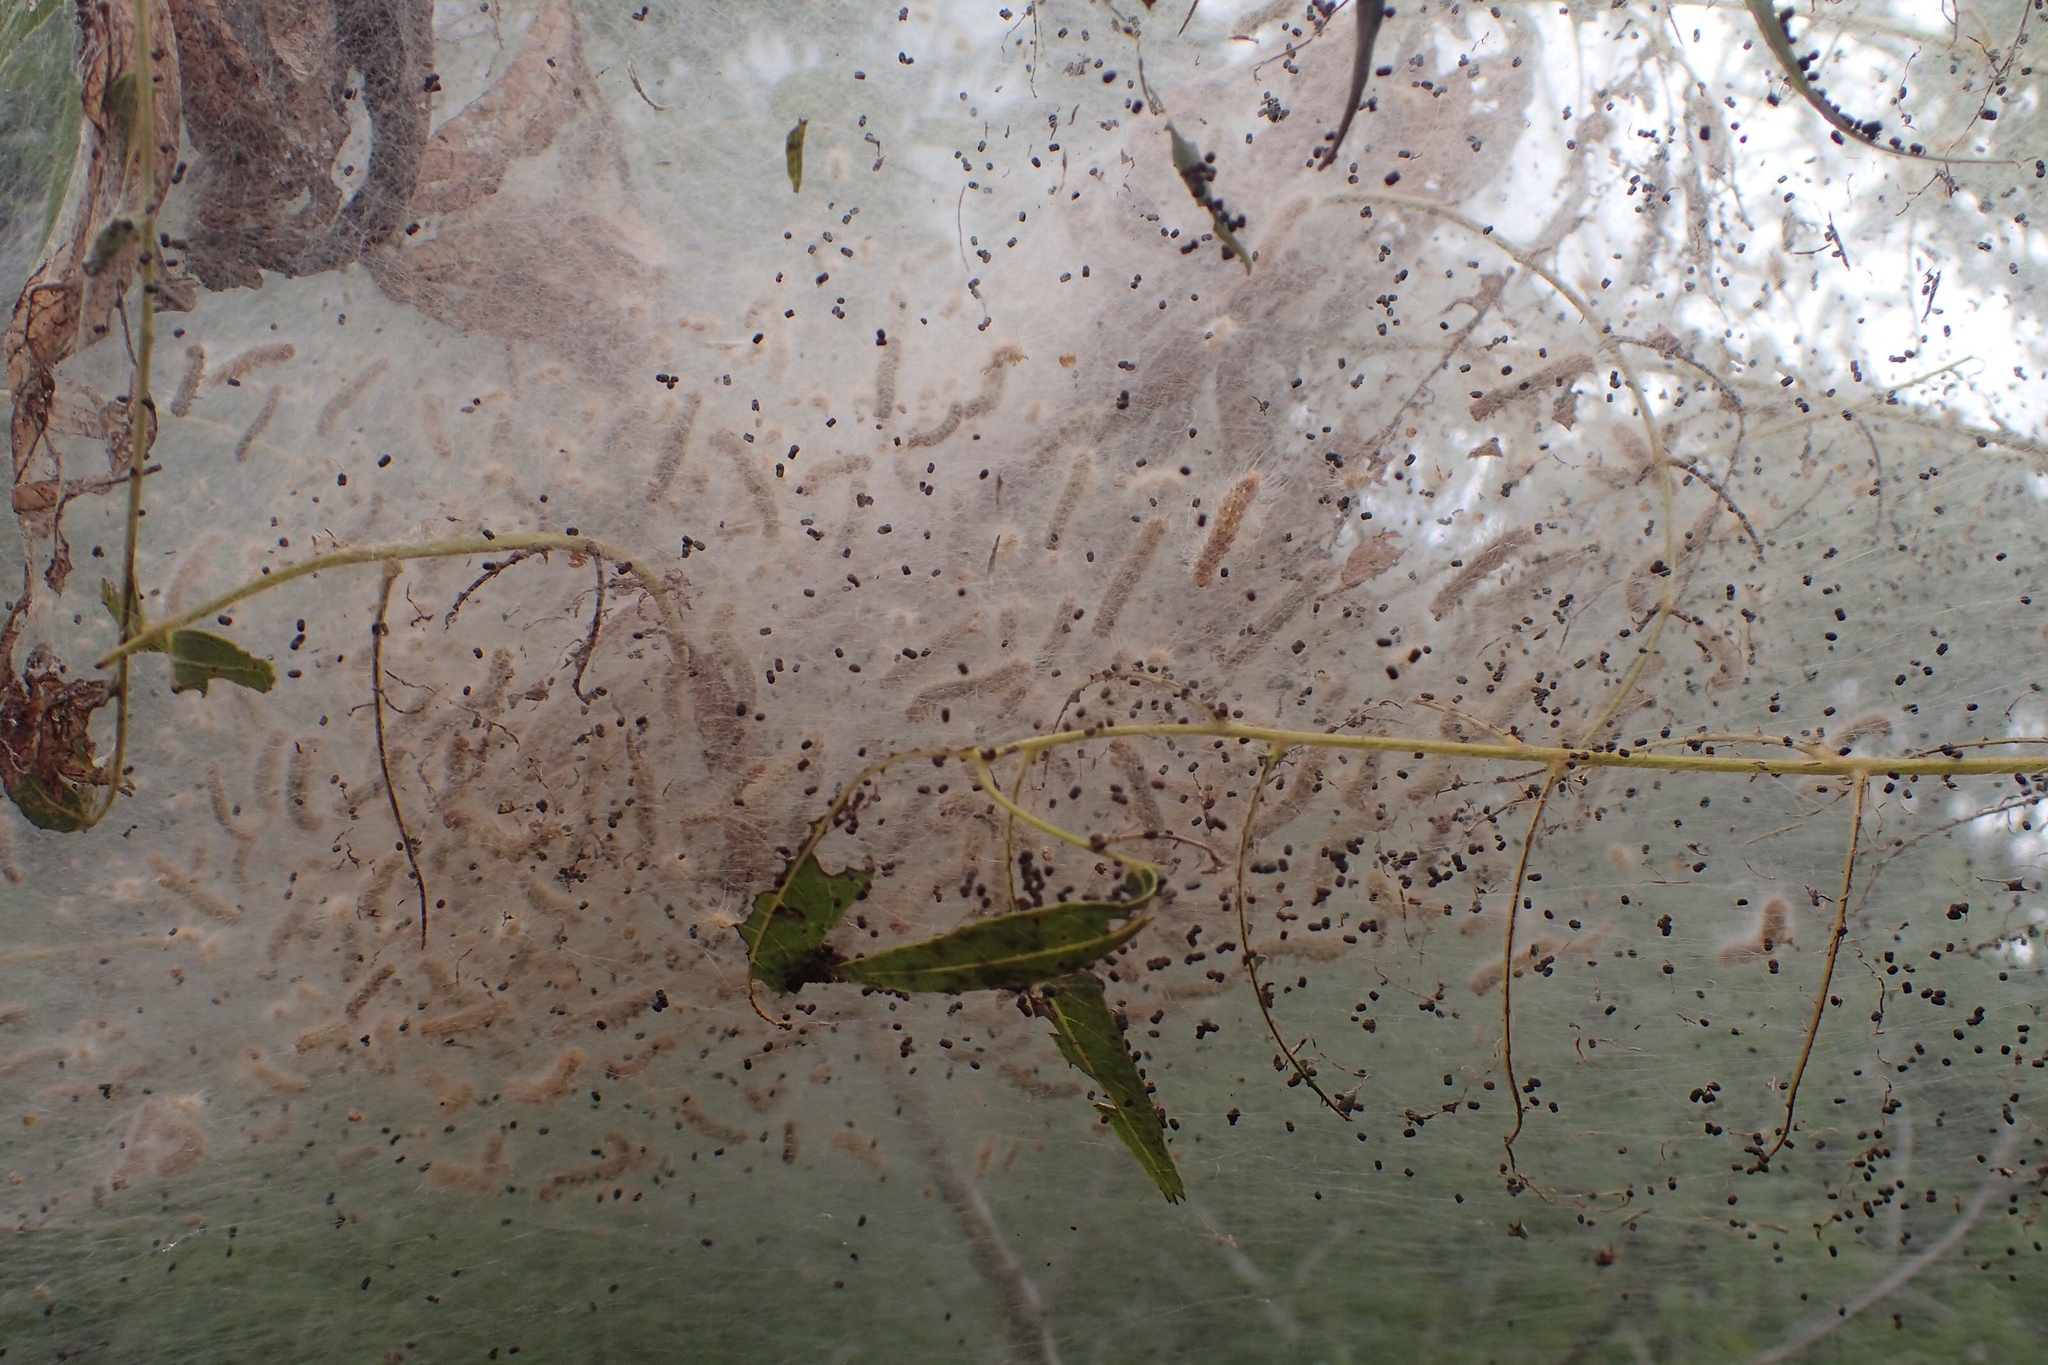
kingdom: Animalia
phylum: Arthropoda
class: Insecta
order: Lepidoptera
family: Erebidae
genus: Hyphantria
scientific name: Hyphantria cunea
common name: American white moth
